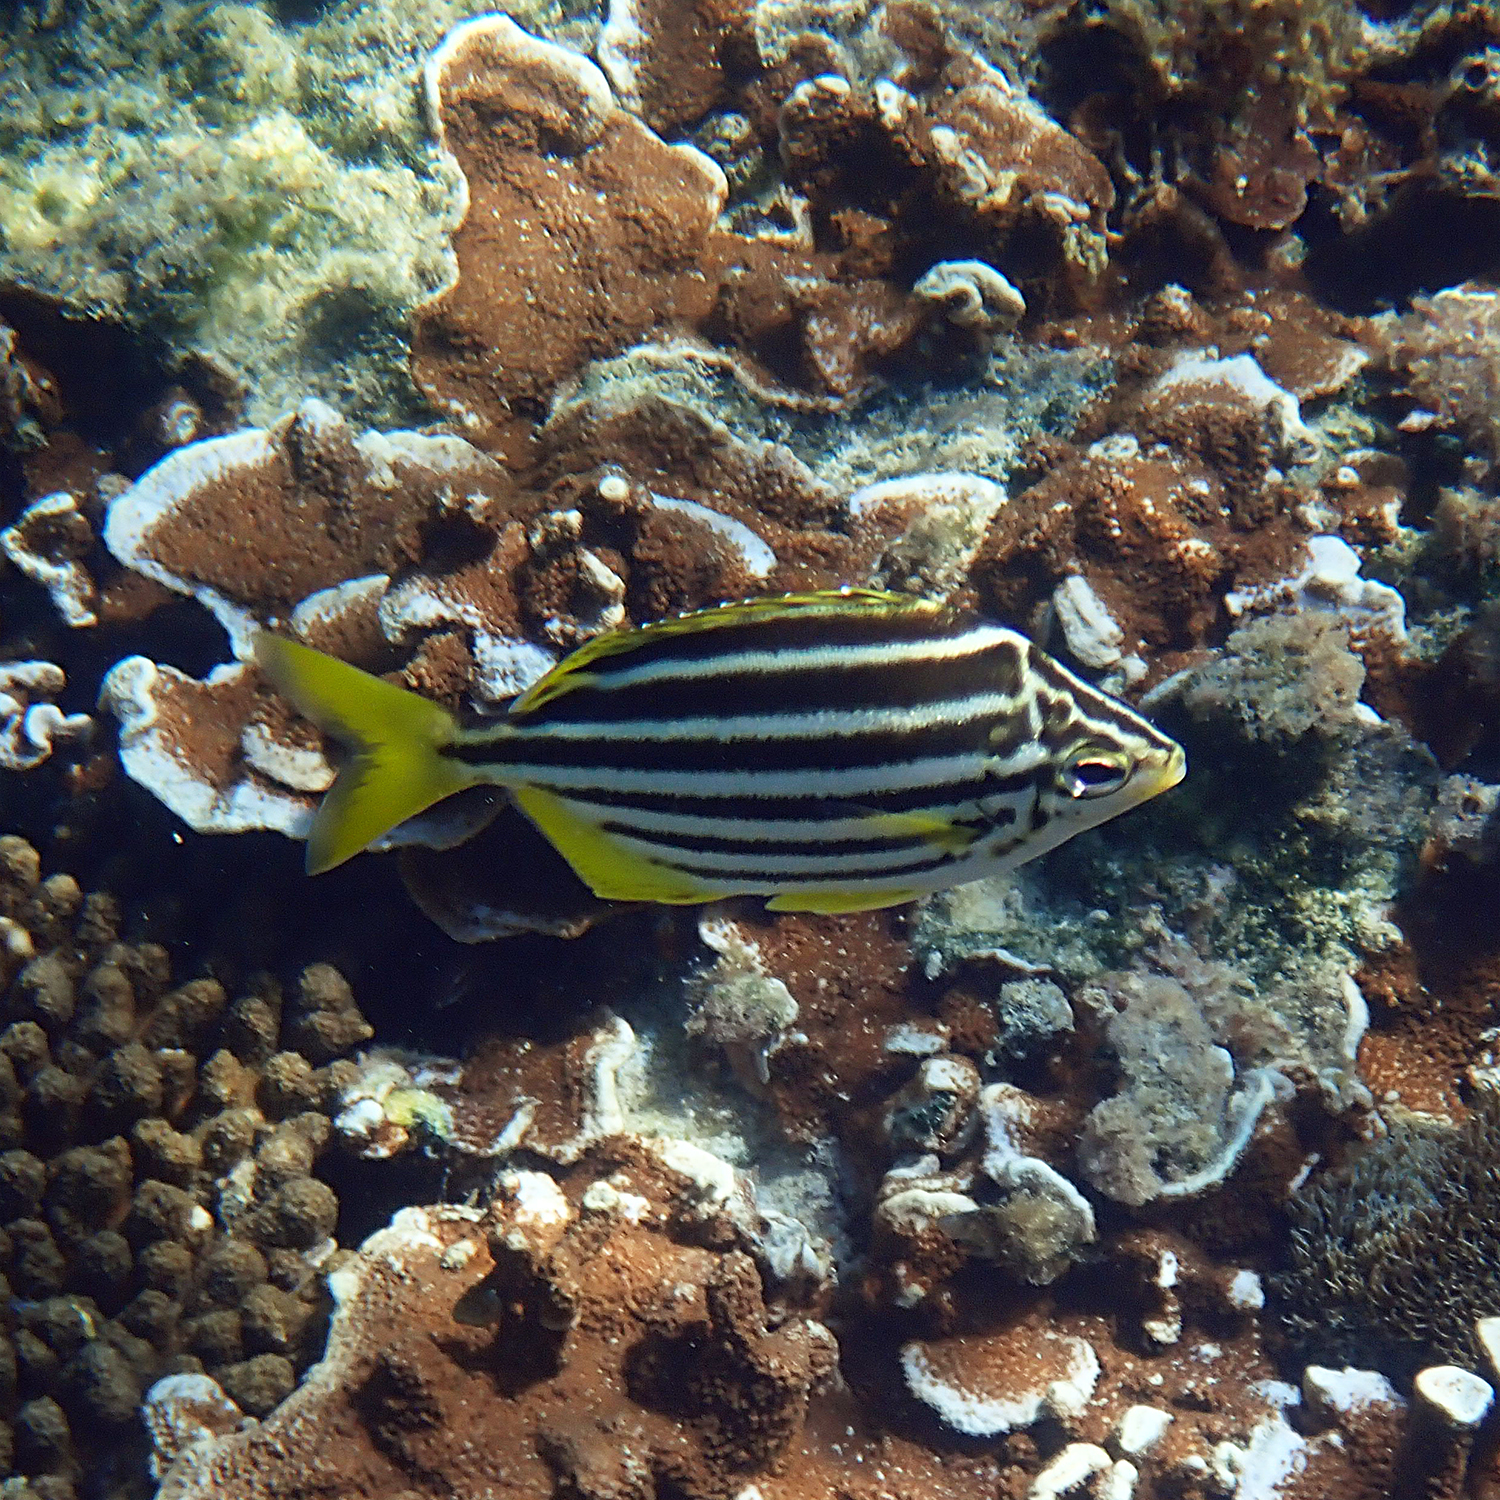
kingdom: Animalia
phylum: Chordata
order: Perciformes
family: Kyphosidae
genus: Atypichthys
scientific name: Atypichthys latus
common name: Mado
